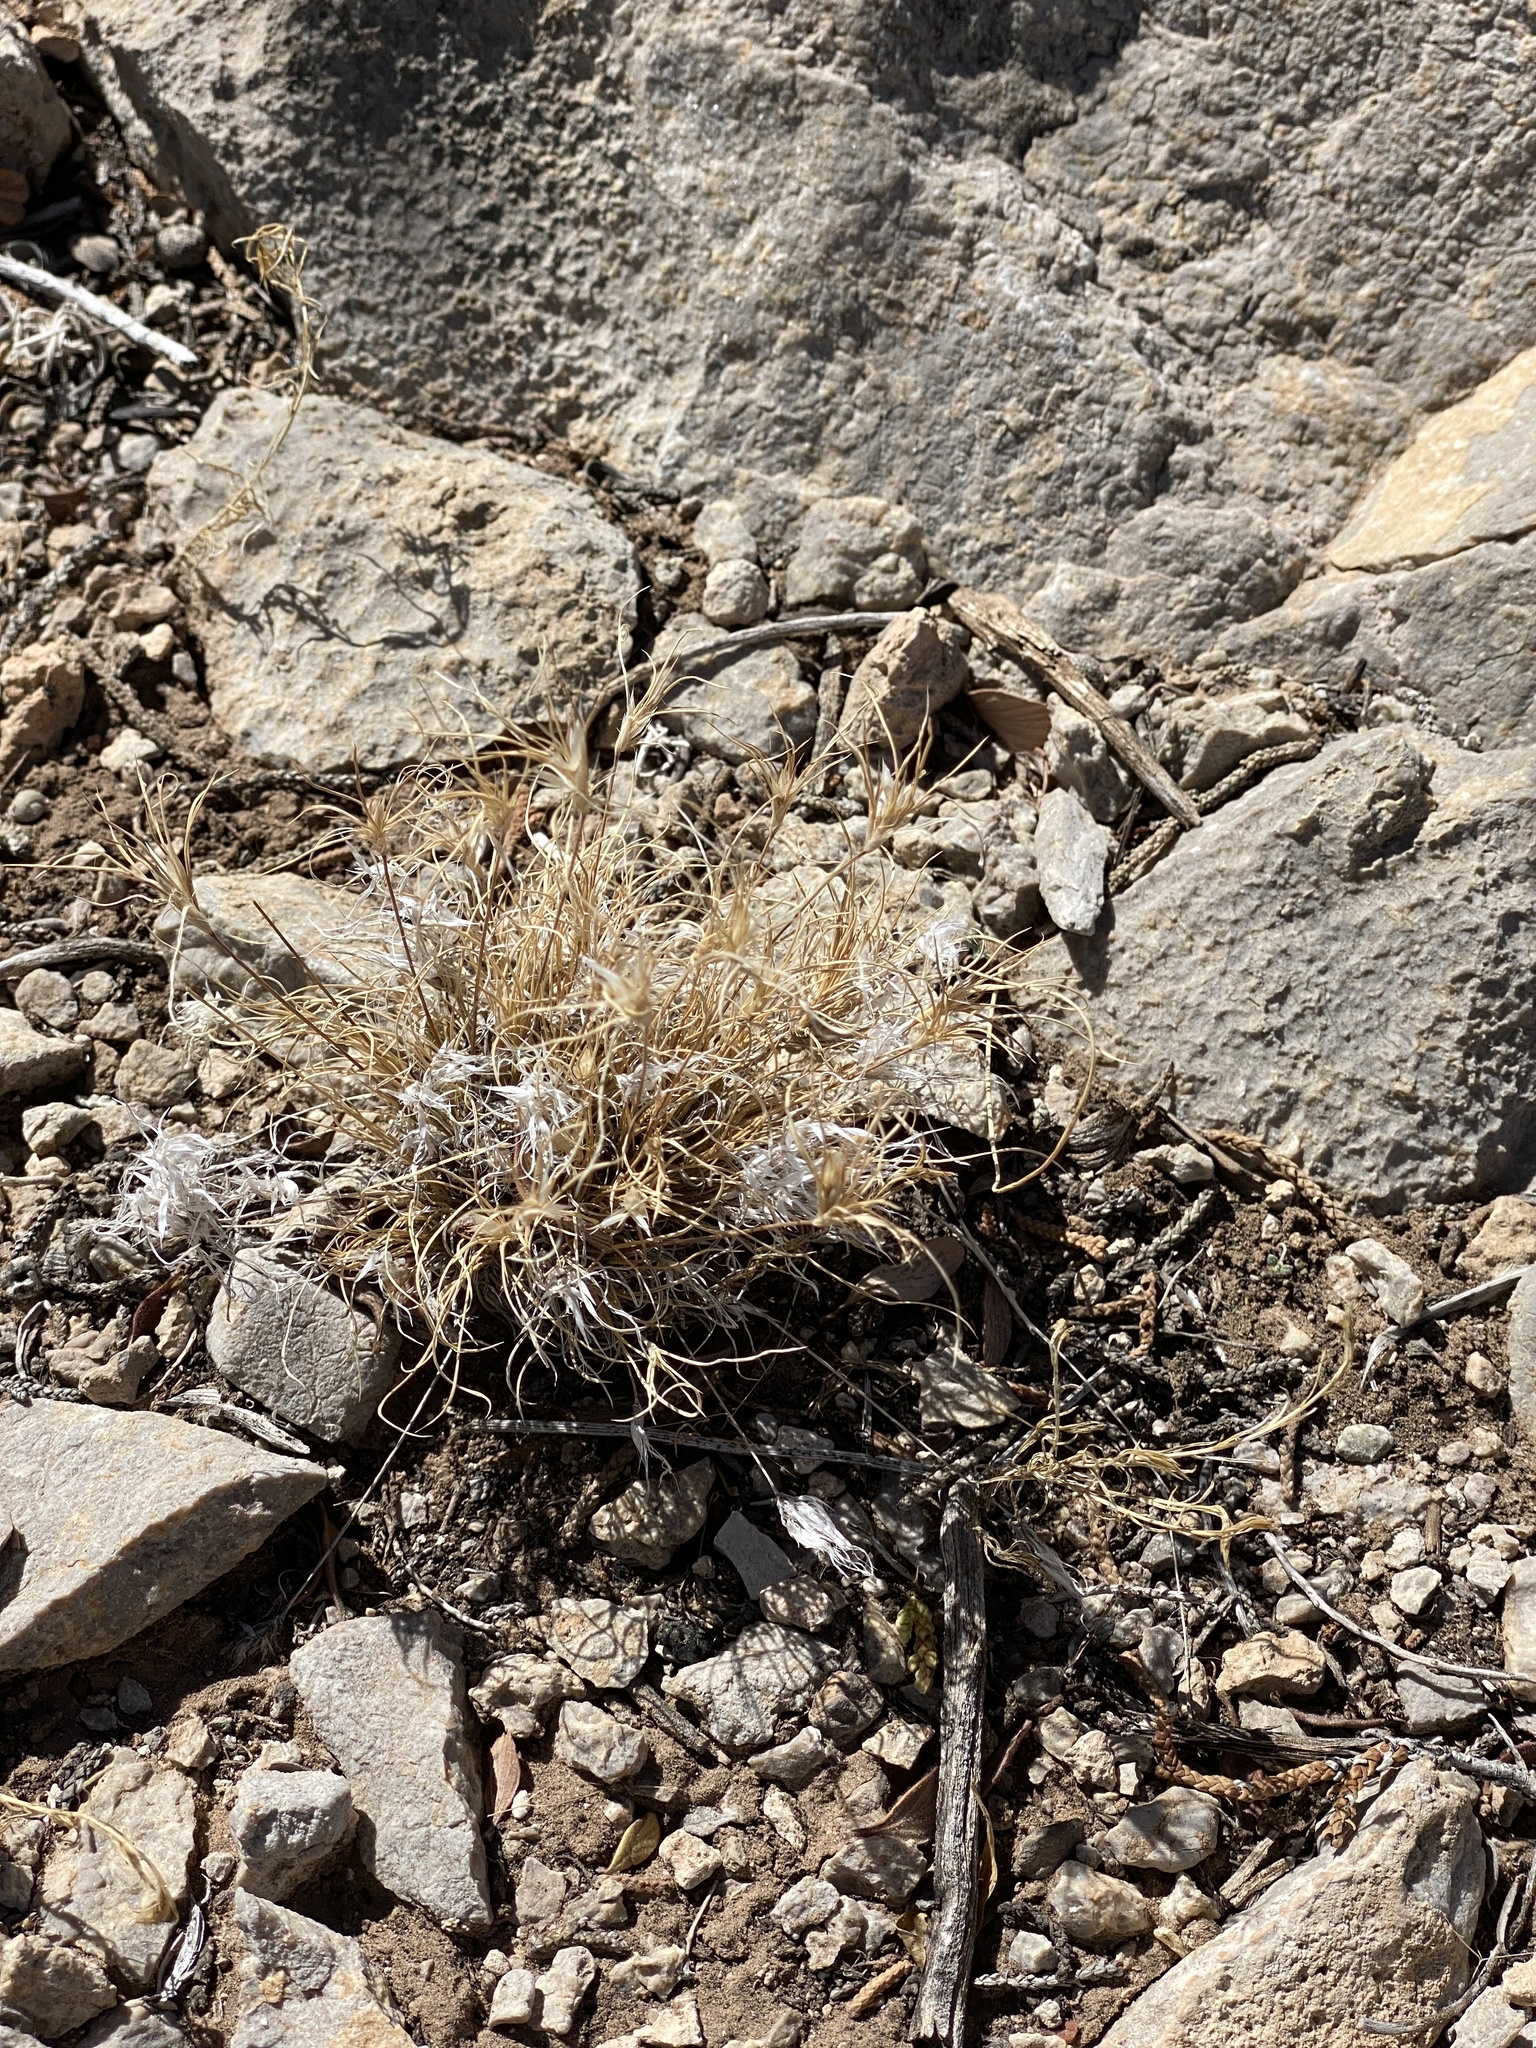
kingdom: Plantae
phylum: Tracheophyta
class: Liliopsida
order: Poales
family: Poaceae
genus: Dasyochloa
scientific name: Dasyochloa pulchella
